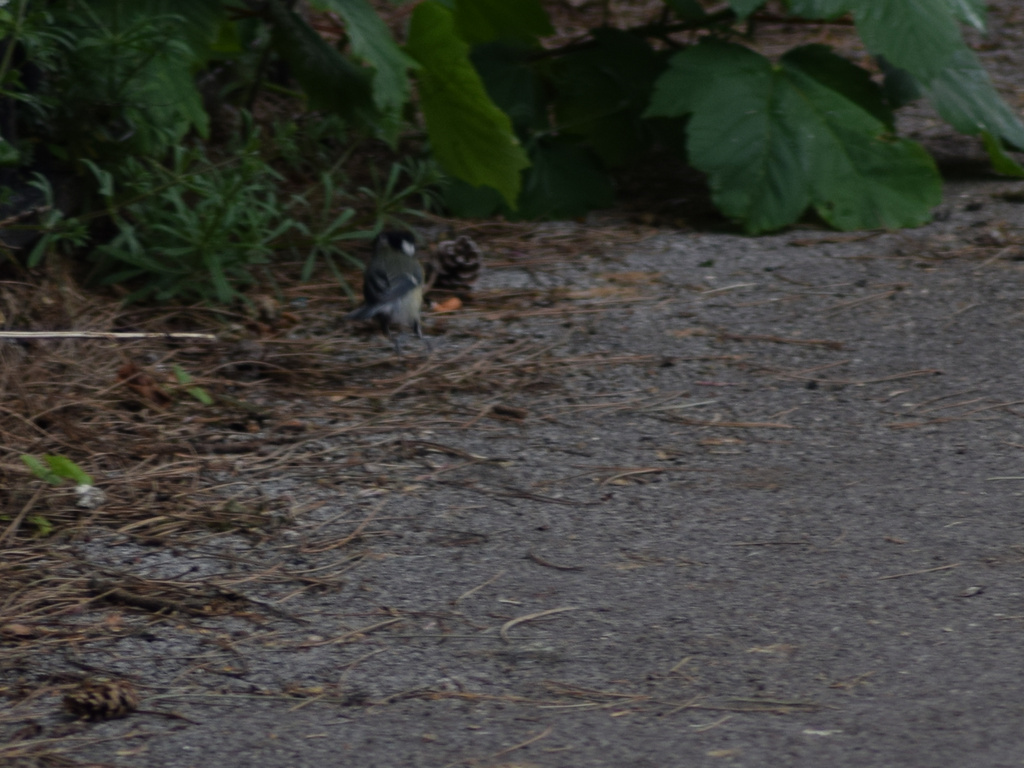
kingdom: Animalia
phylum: Chordata
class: Aves
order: Passeriformes
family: Paridae
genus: Parus
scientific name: Parus major
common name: Great tit
